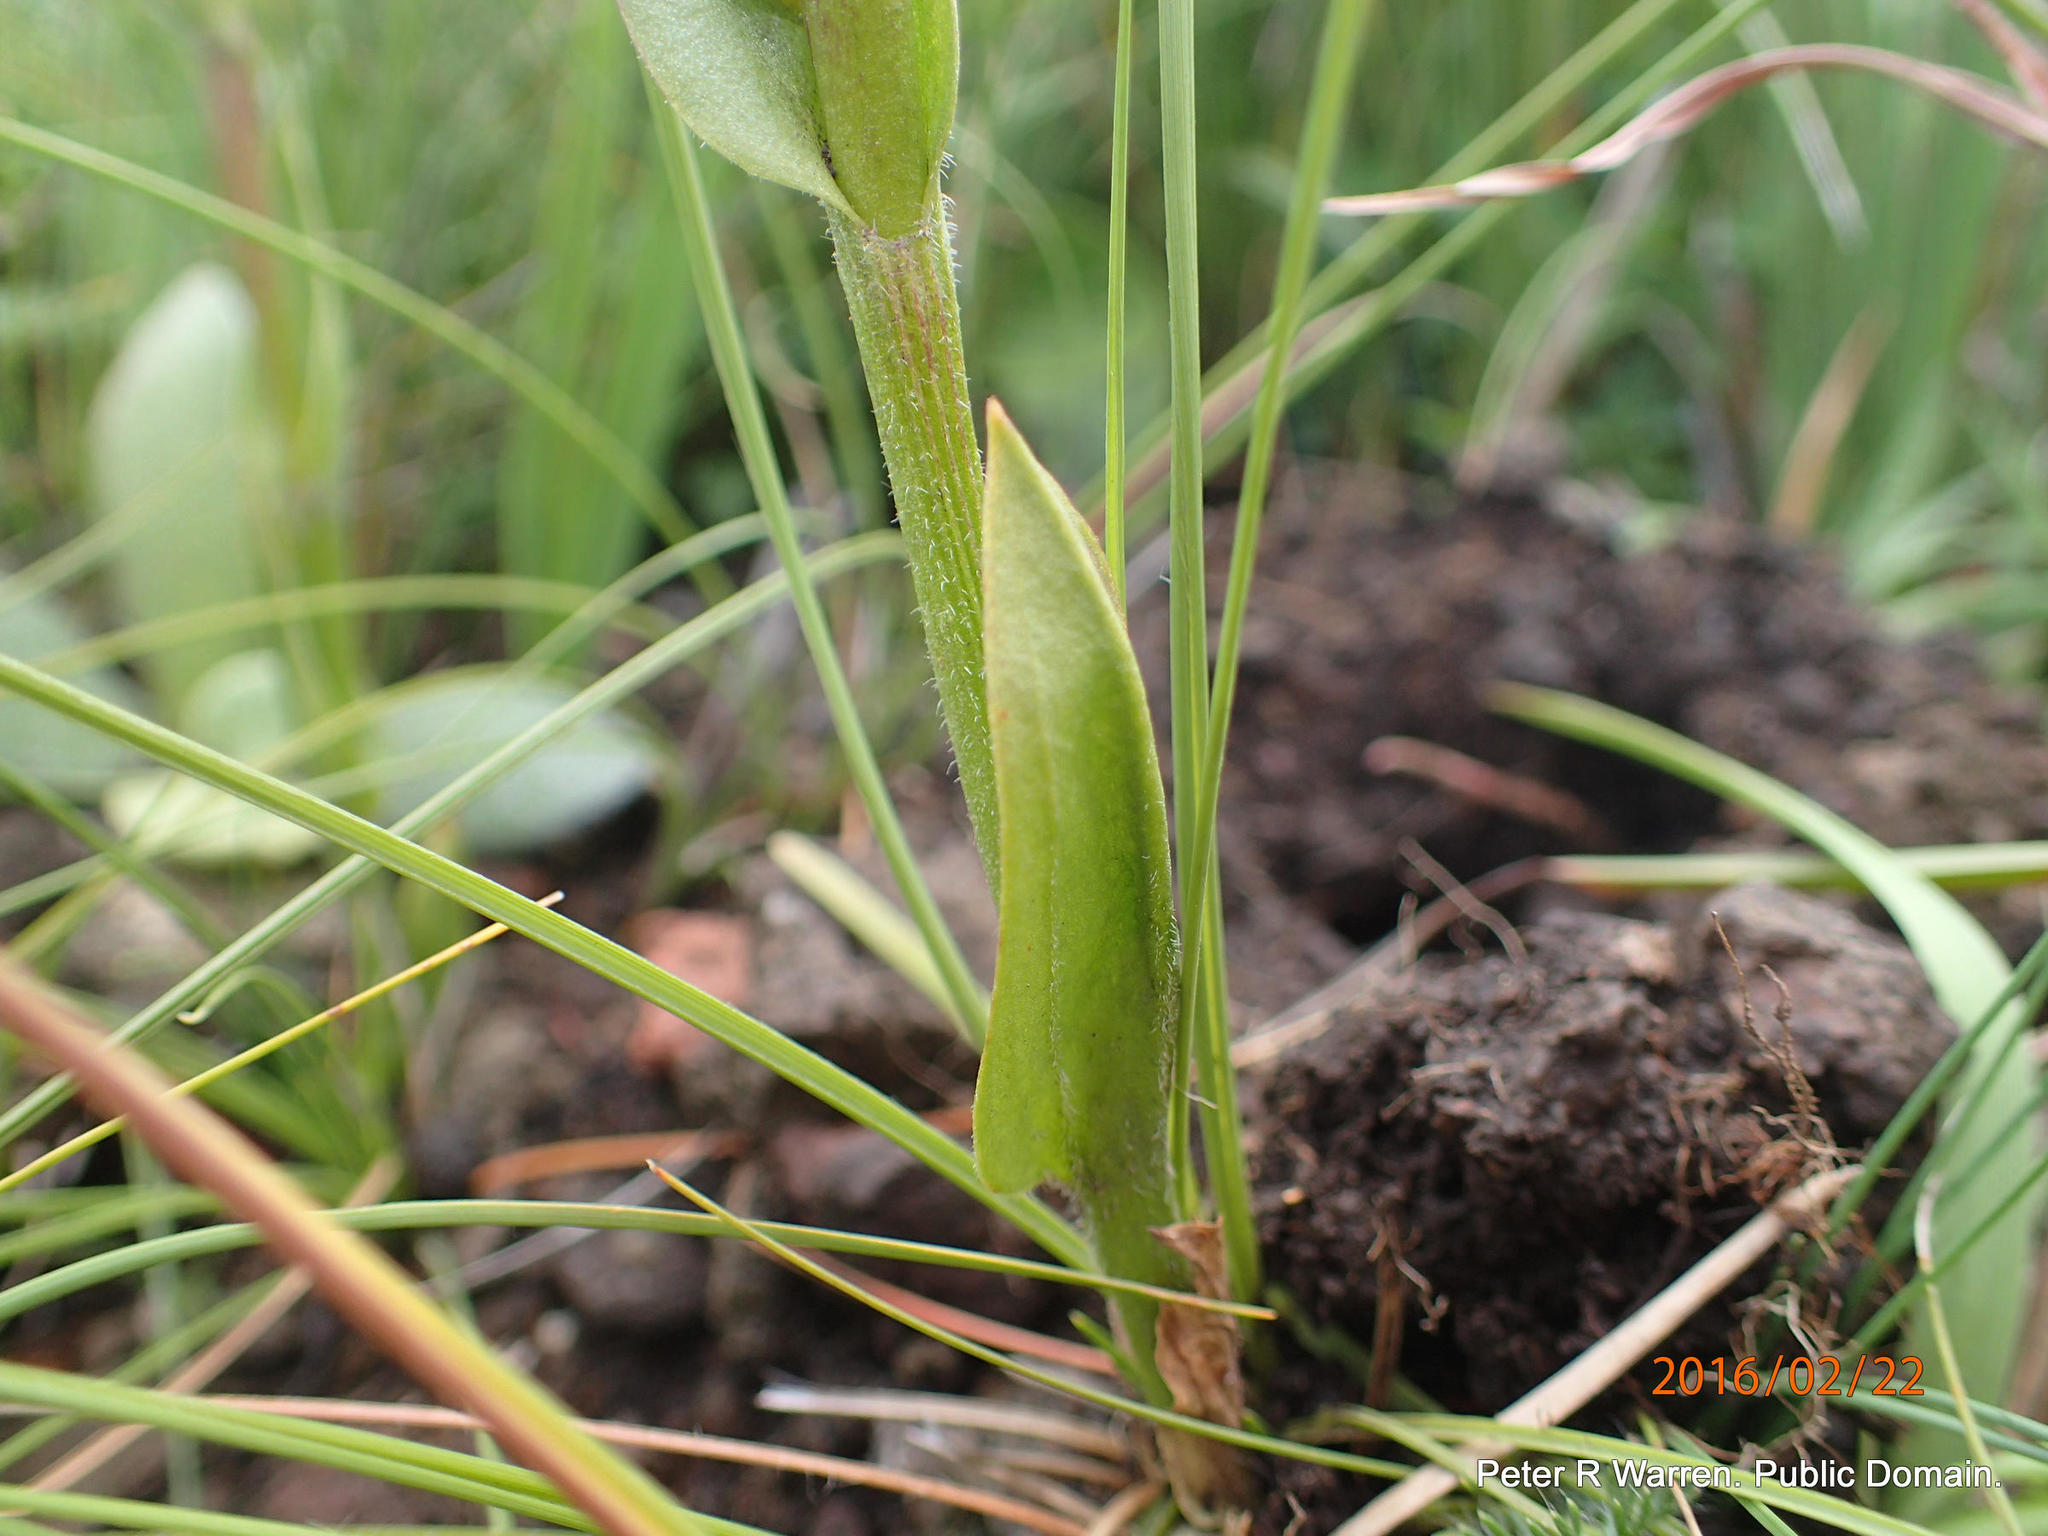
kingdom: Plantae
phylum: Tracheophyta
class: Liliopsida
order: Asparagales
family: Orchidaceae
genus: Disperis
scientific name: Disperis stenoplectron
